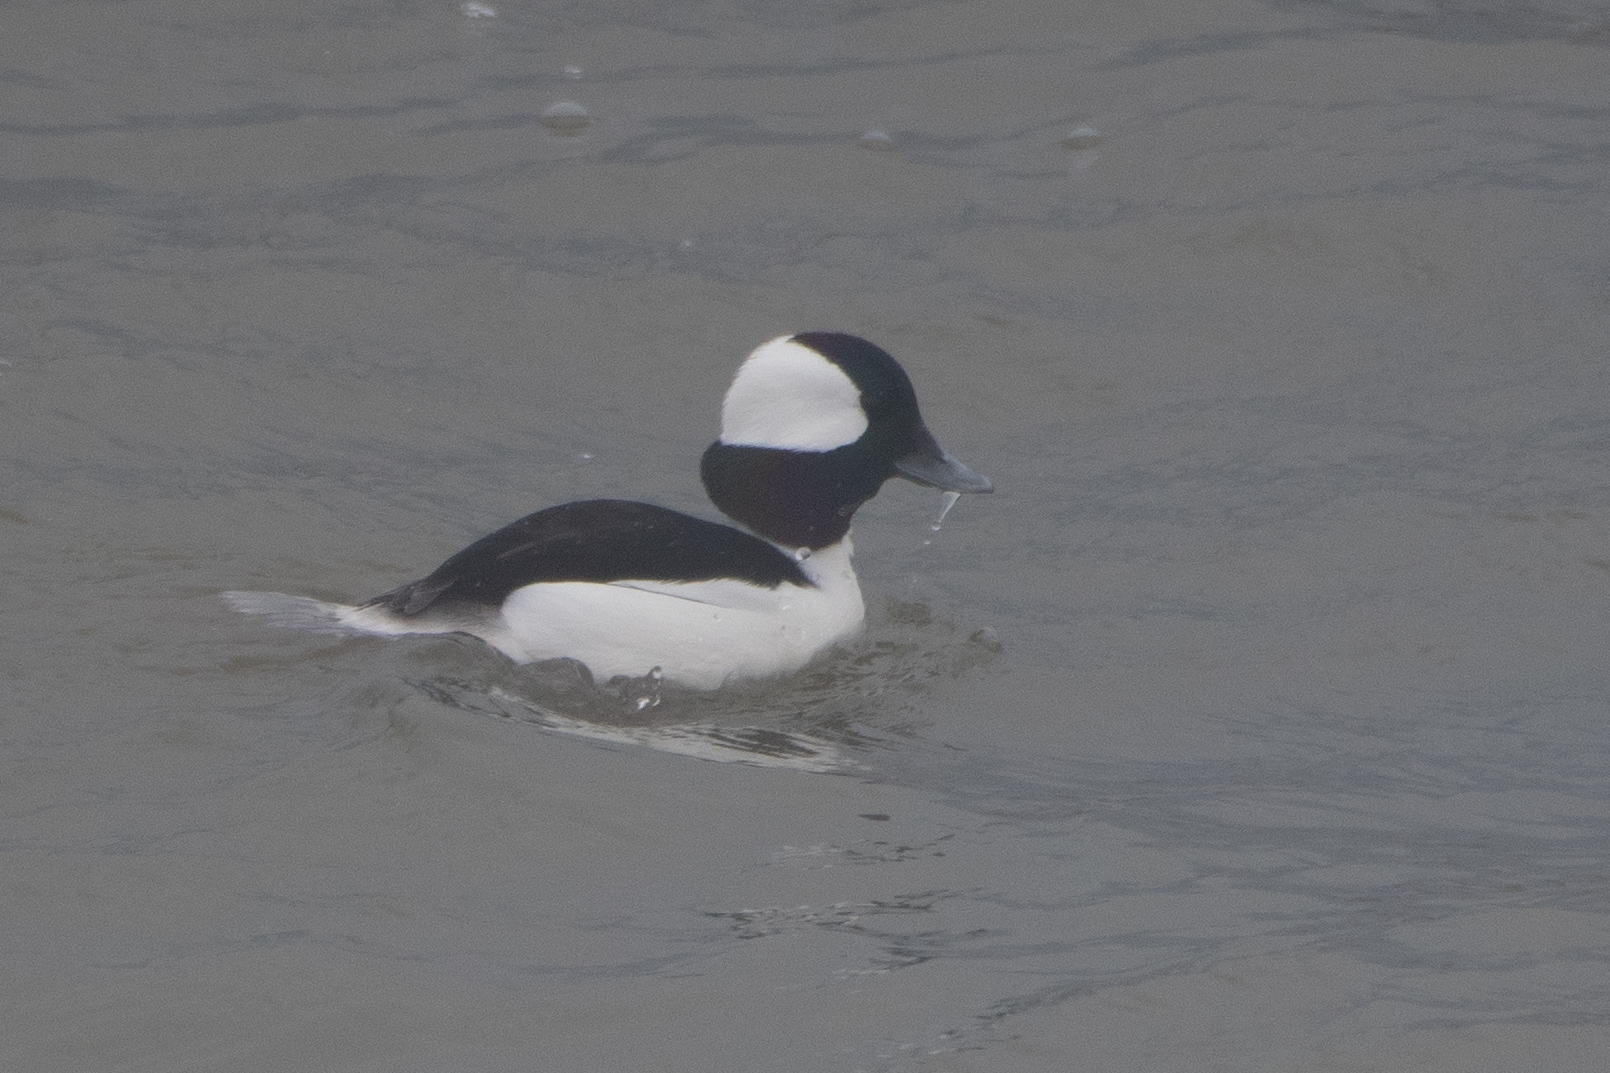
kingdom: Animalia
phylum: Chordata
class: Aves
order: Anseriformes
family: Anatidae
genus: Bucephala
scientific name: Bucephala albeola
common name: Bufflehead
